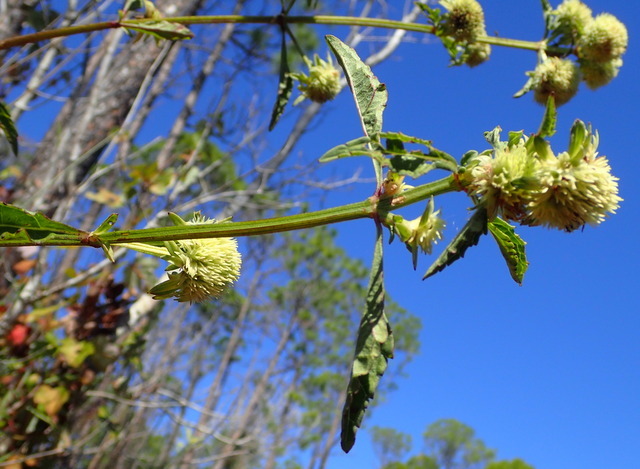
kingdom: Plantae
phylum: Tracheophyta
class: Magnoliopsida
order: Lamiales
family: Lamiaceae
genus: Hyptis
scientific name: Hyptis alata
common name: Cluster bush-mint
